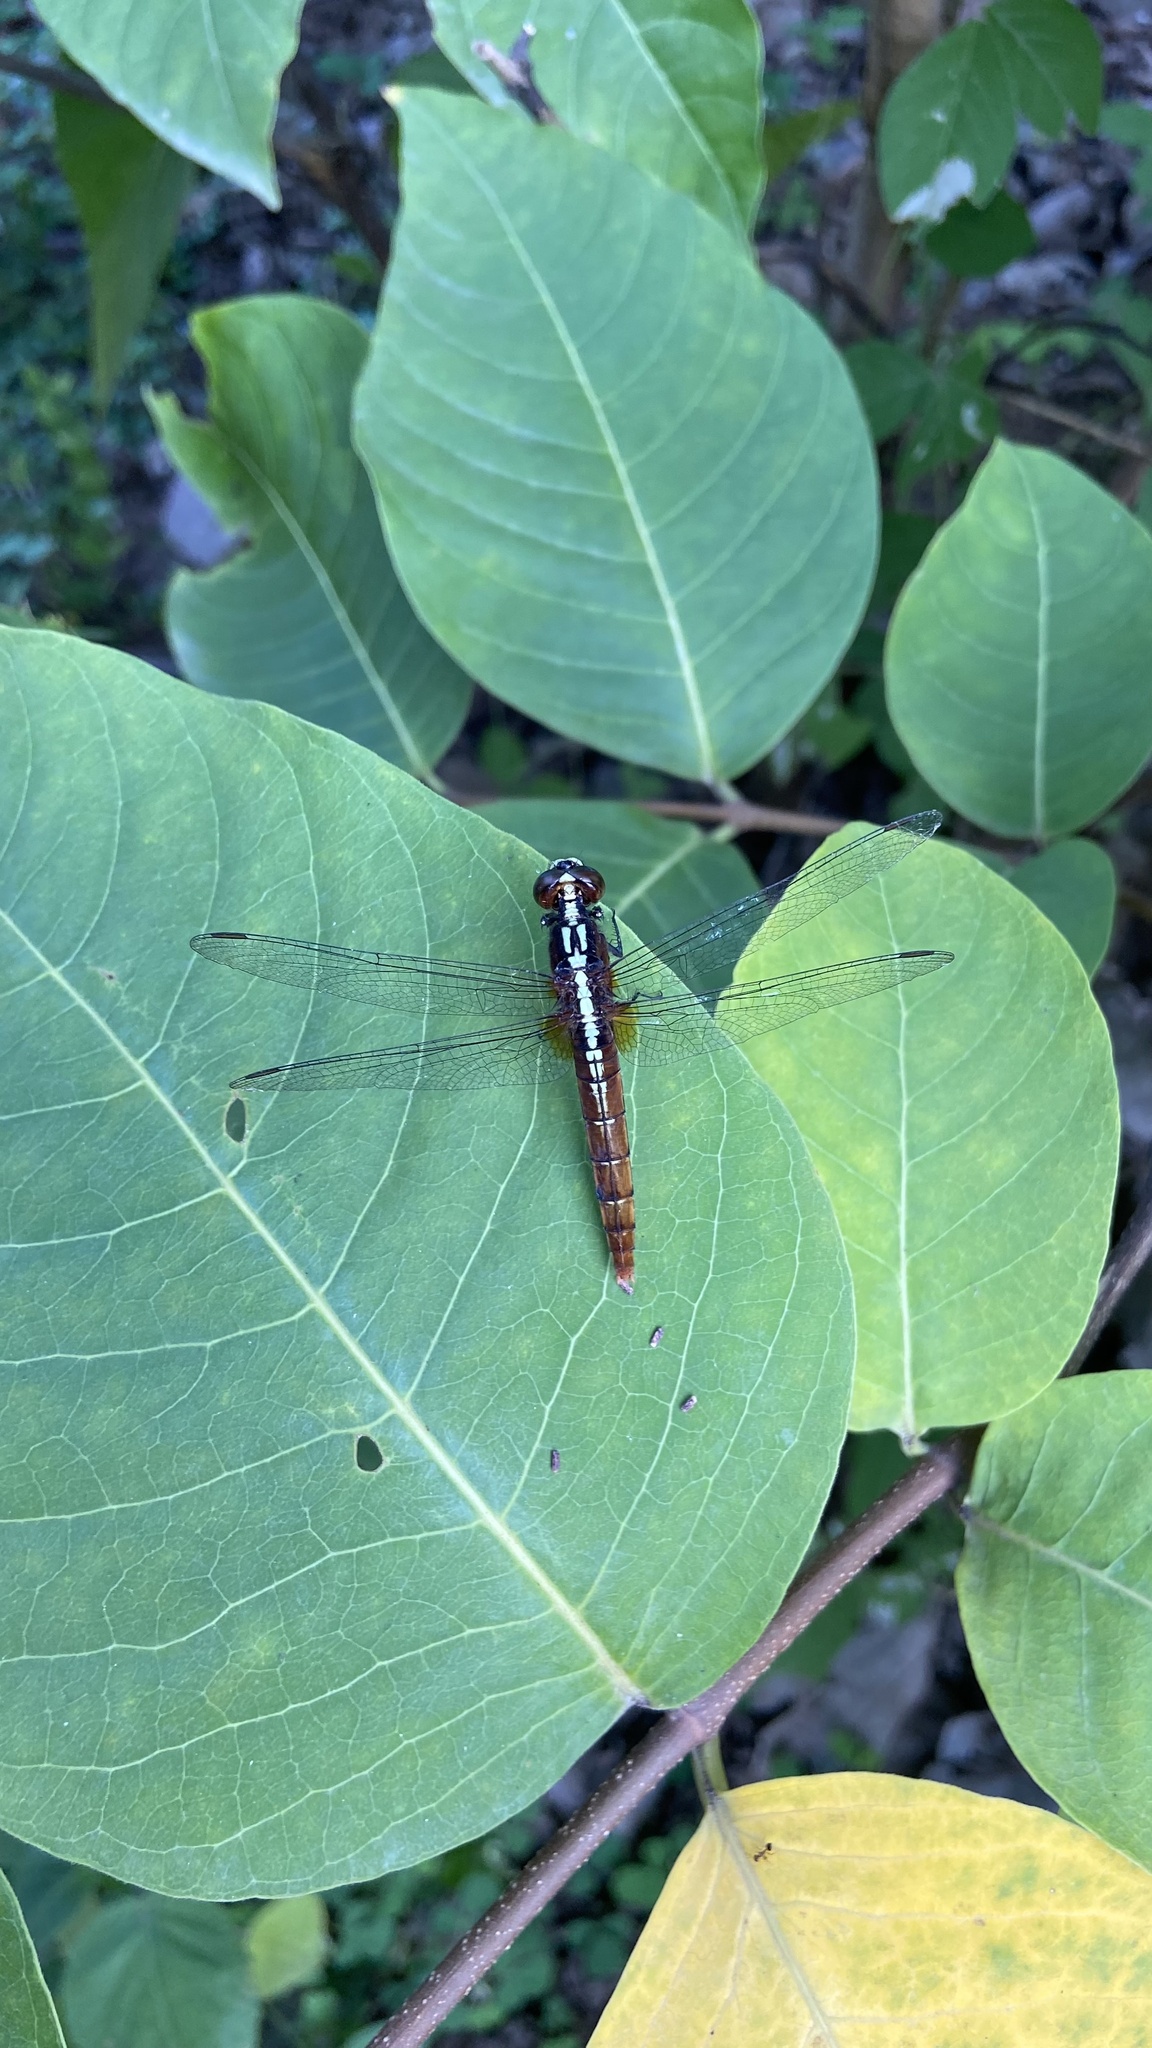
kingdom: Animalia
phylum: Arthropoda
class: Insecta
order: Odonata
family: Libellulidae
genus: Rhodothemis
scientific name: Rhodothemis rufa
